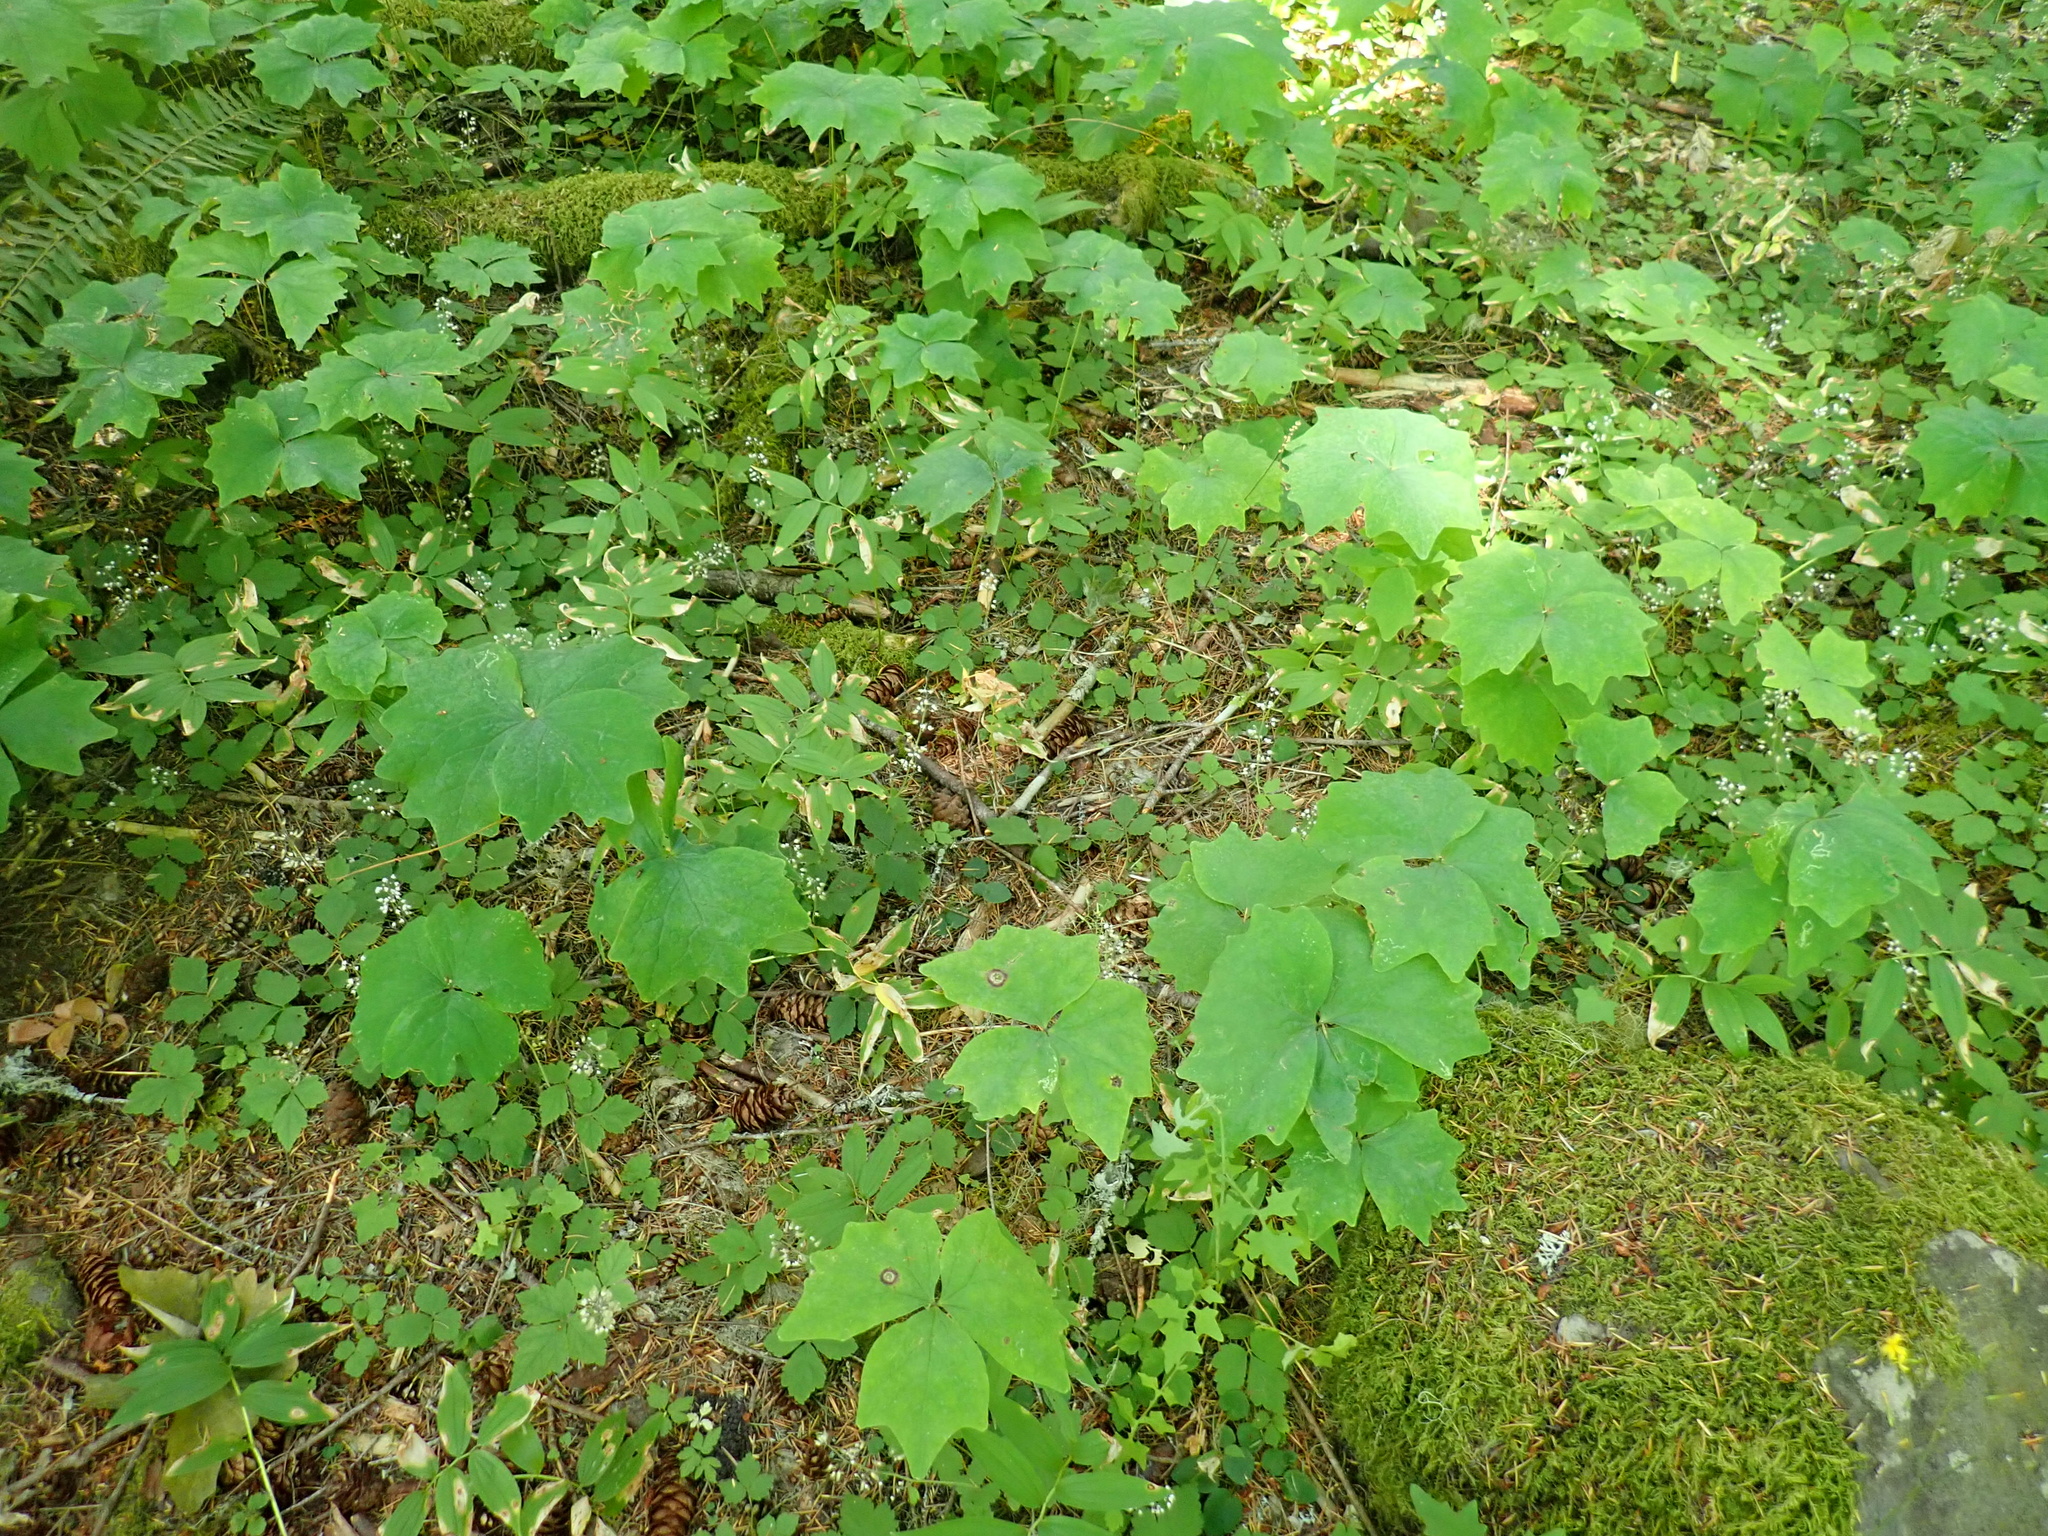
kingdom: Plantae
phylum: Tracheophyta
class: Magnoliopsida
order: Ranunculales
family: Berberidaceae
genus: Achlys
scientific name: Achlys triphylla
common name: Vanilla-leaf
